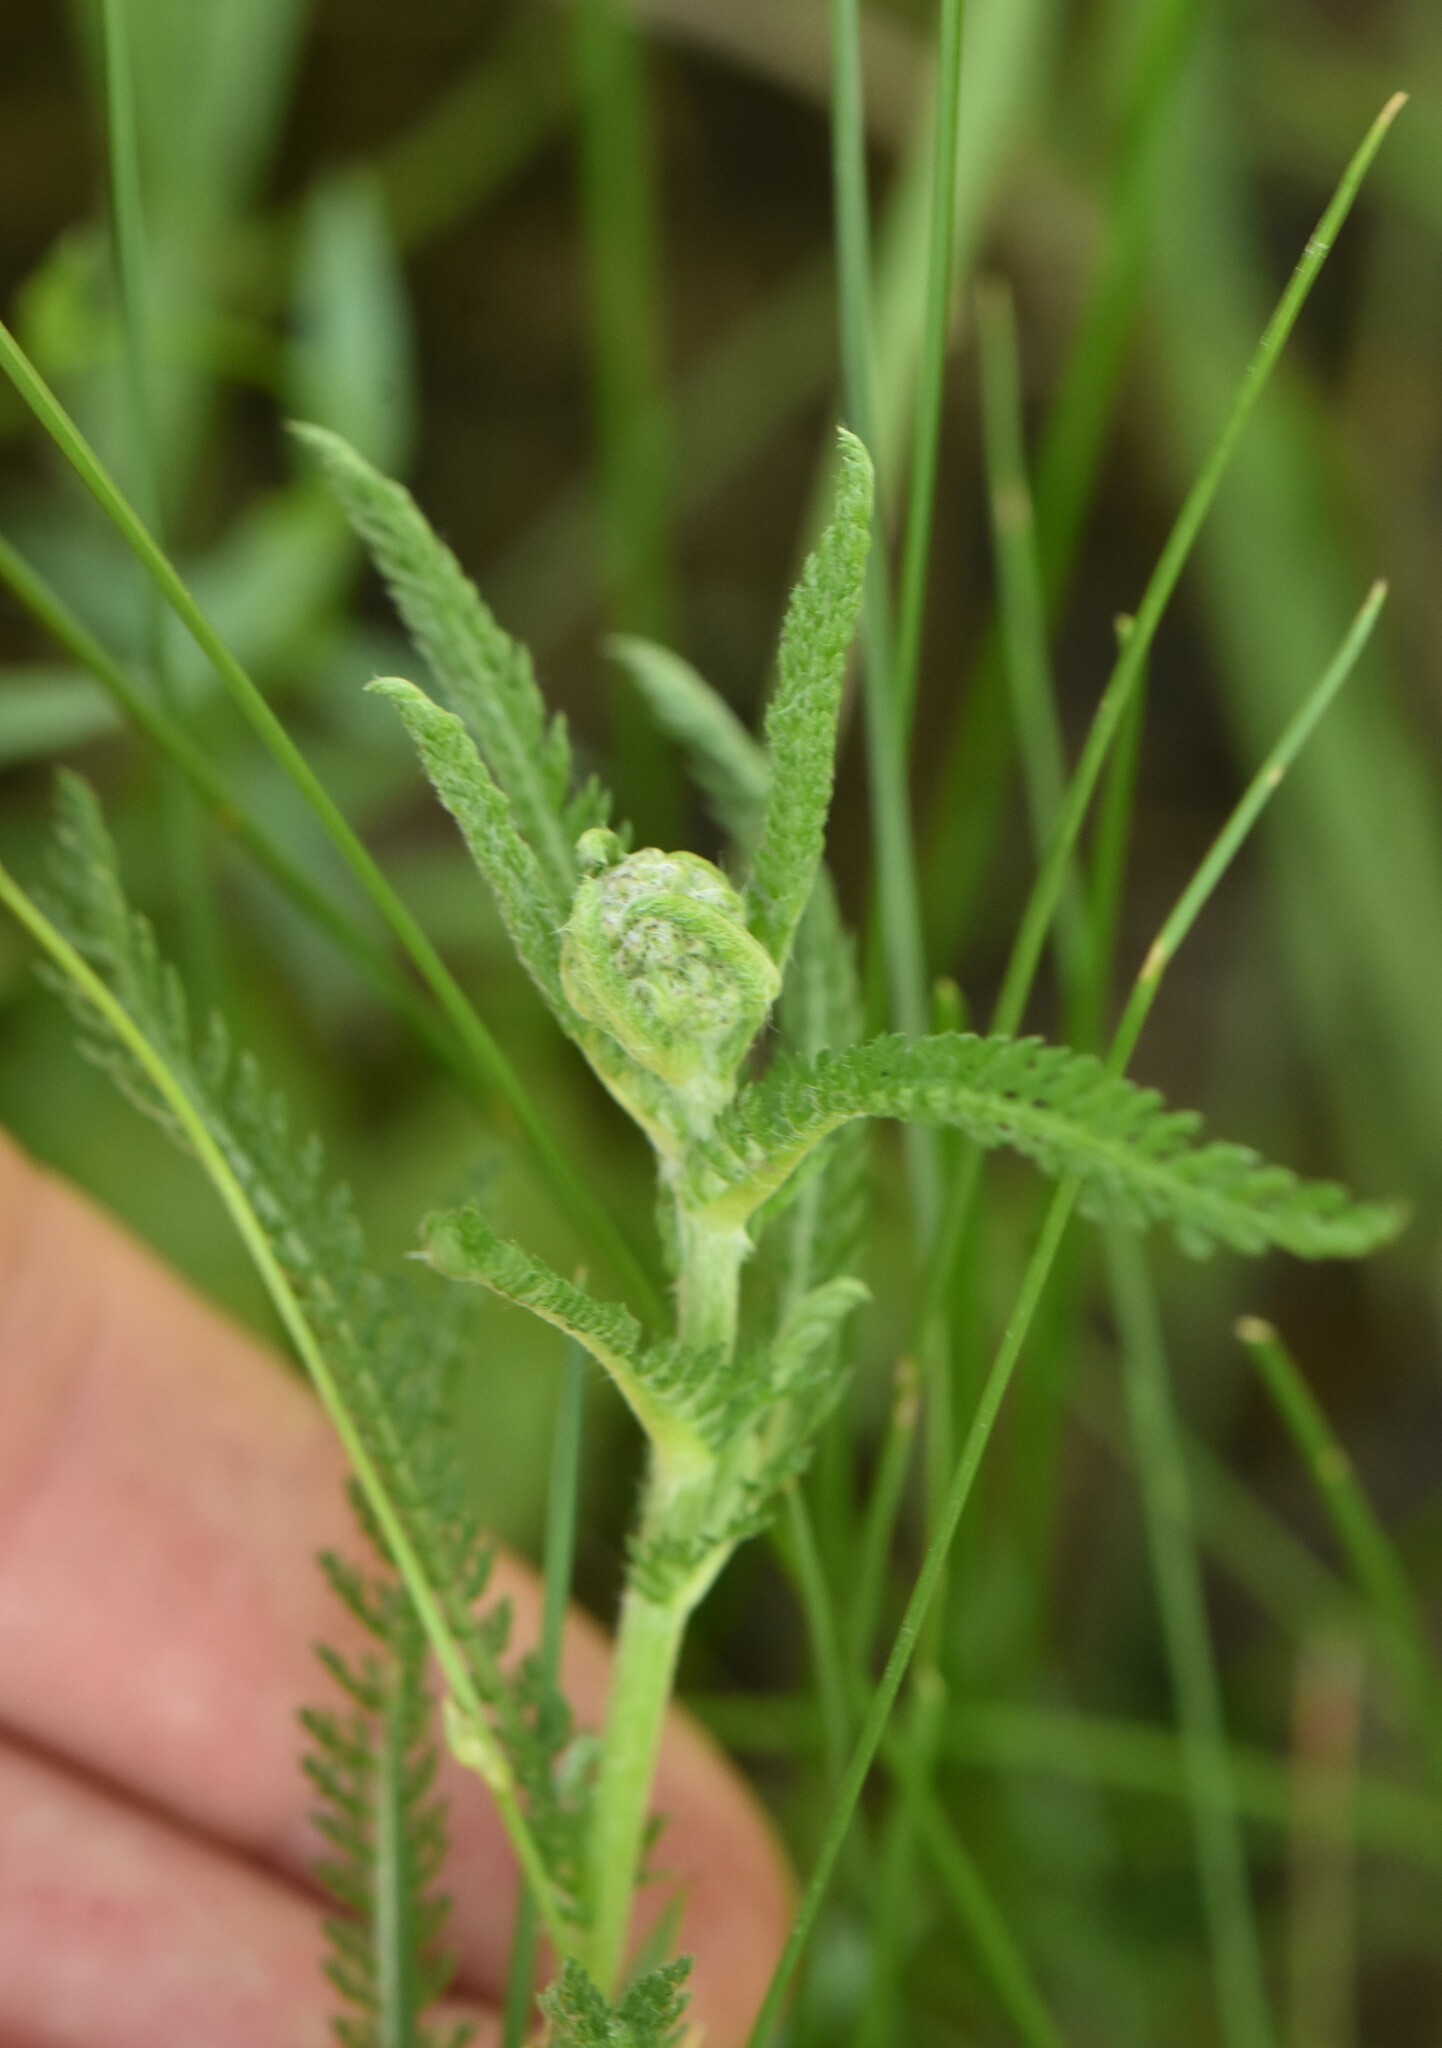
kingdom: Plantae
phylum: Tracheophyta
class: Magnoliopsida
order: Asterales
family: Asteraceae
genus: Achillea
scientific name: Achillea millefolium
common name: Yarrow
